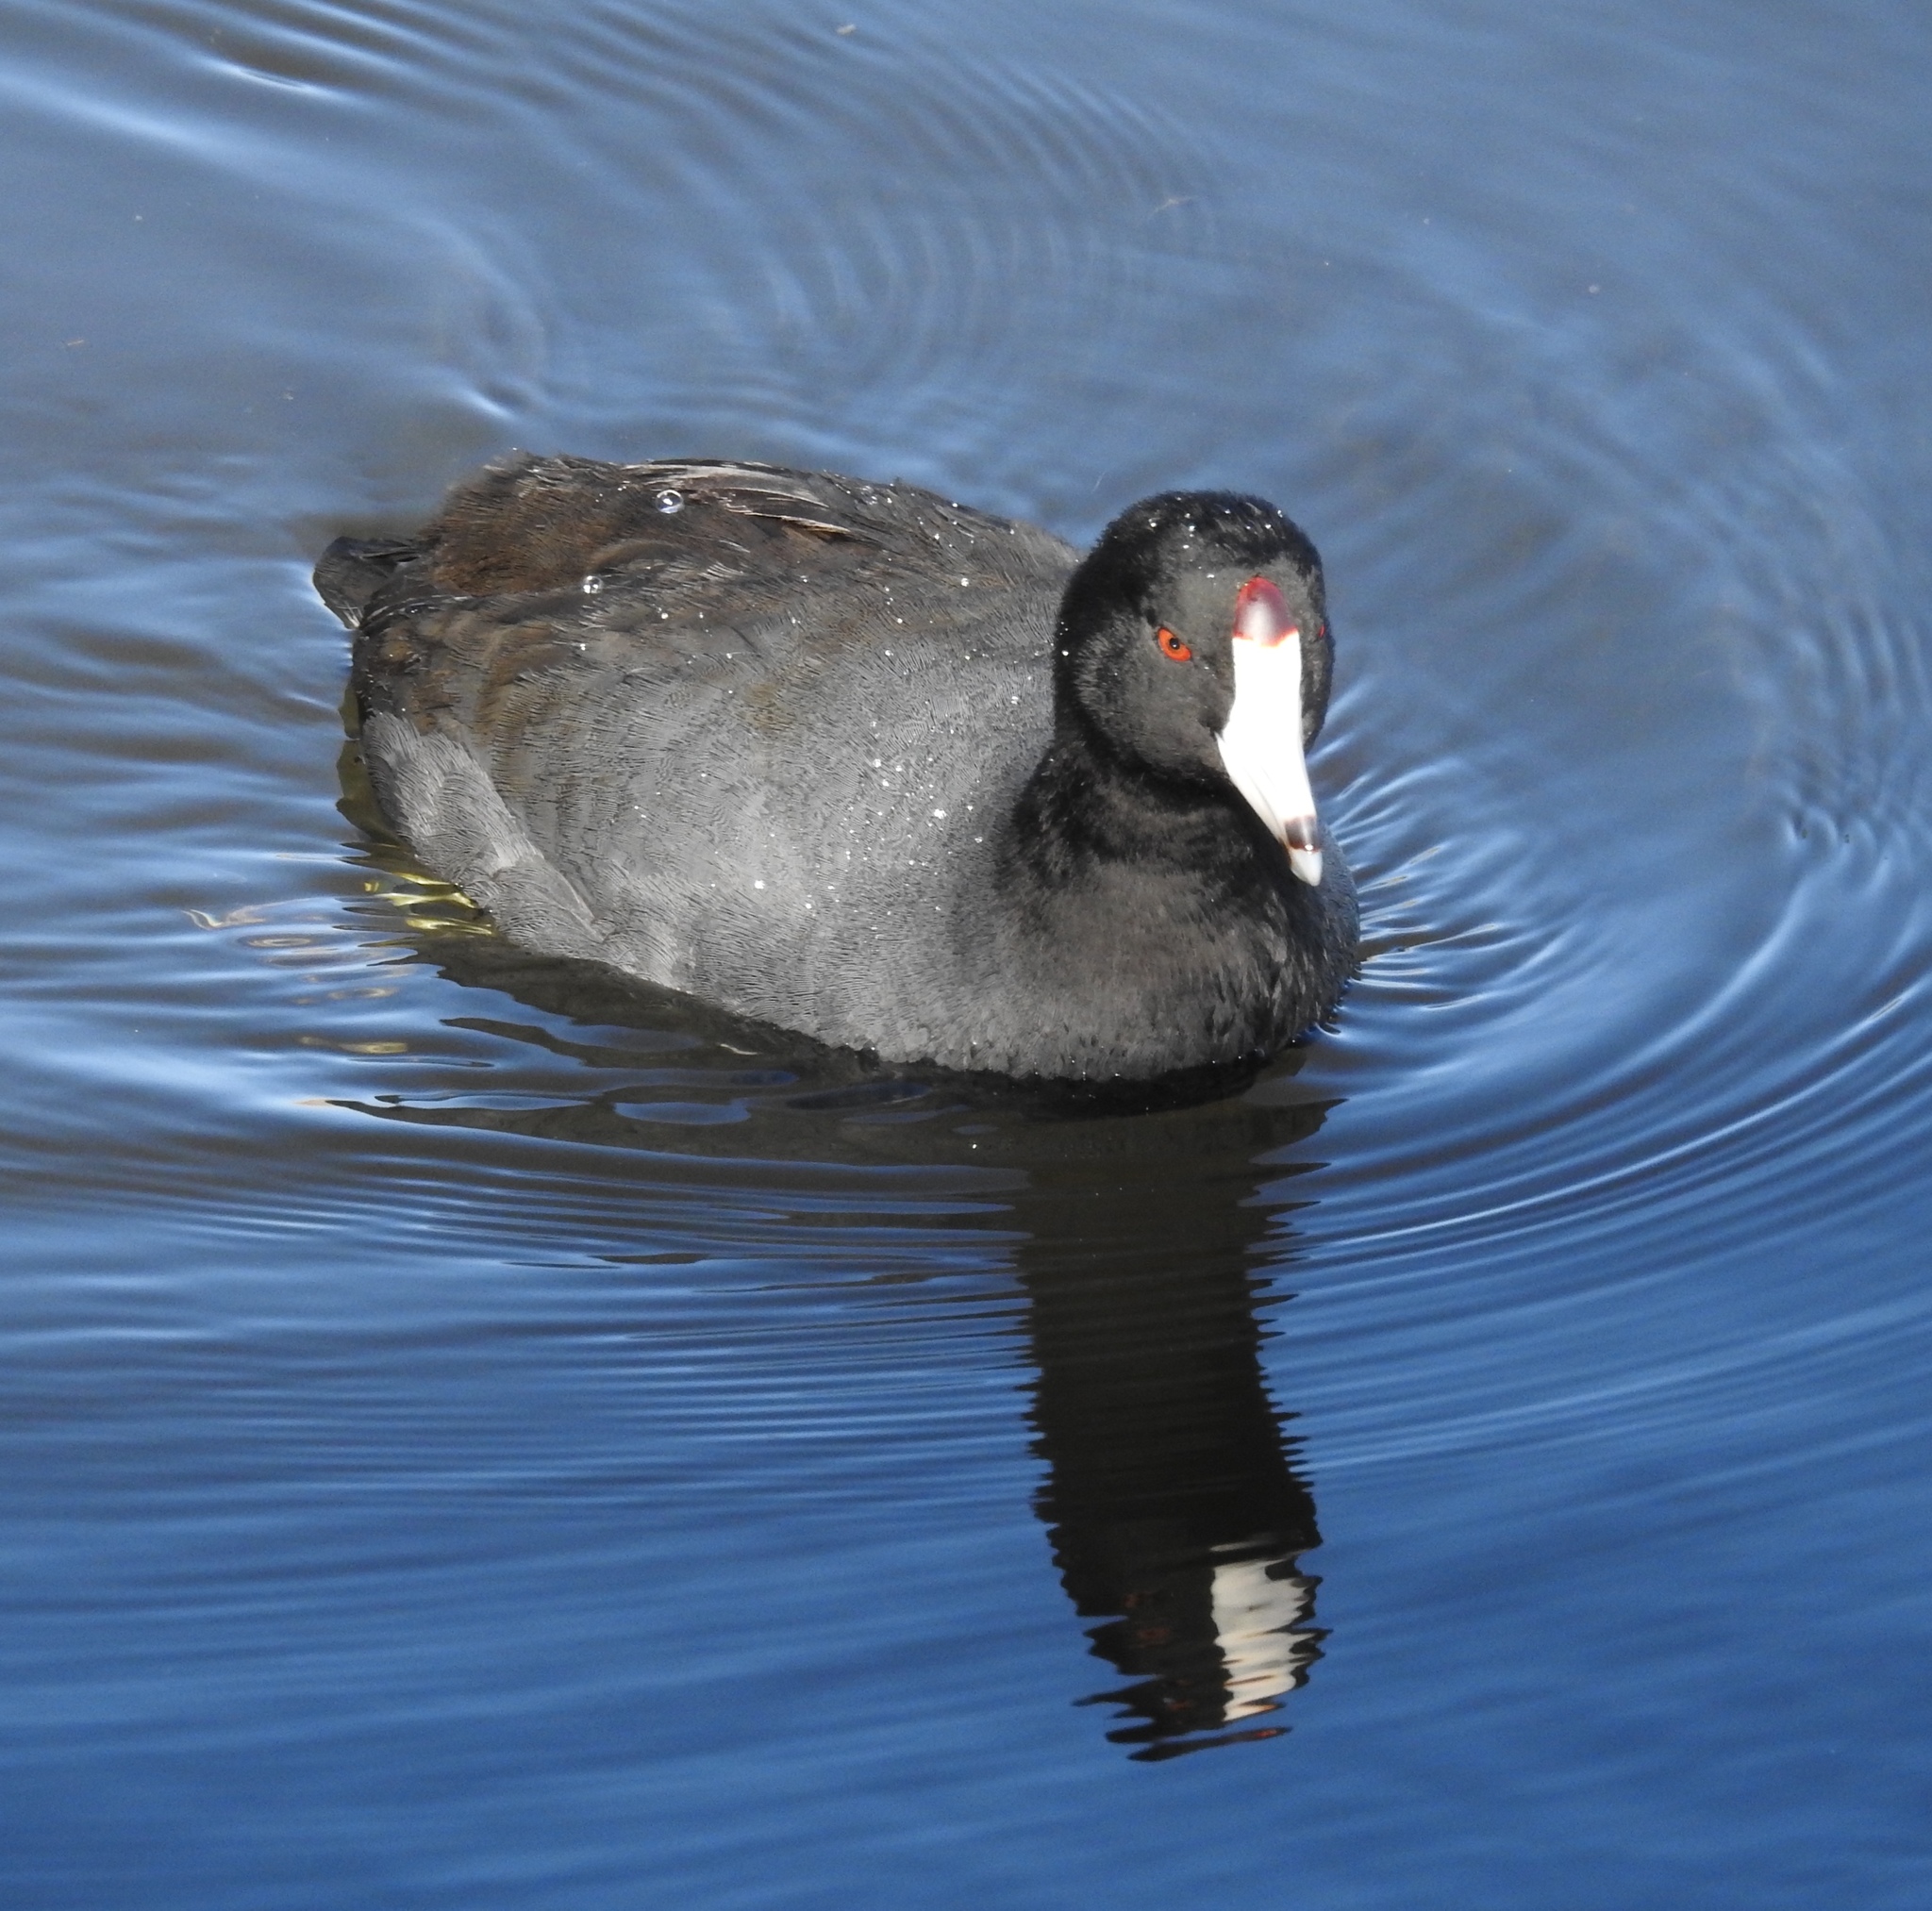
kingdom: Animalia
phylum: Chordata
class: Aves
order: Gruiformes
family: Rallidae
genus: Fulica
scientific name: Fulica americana
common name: American coot
